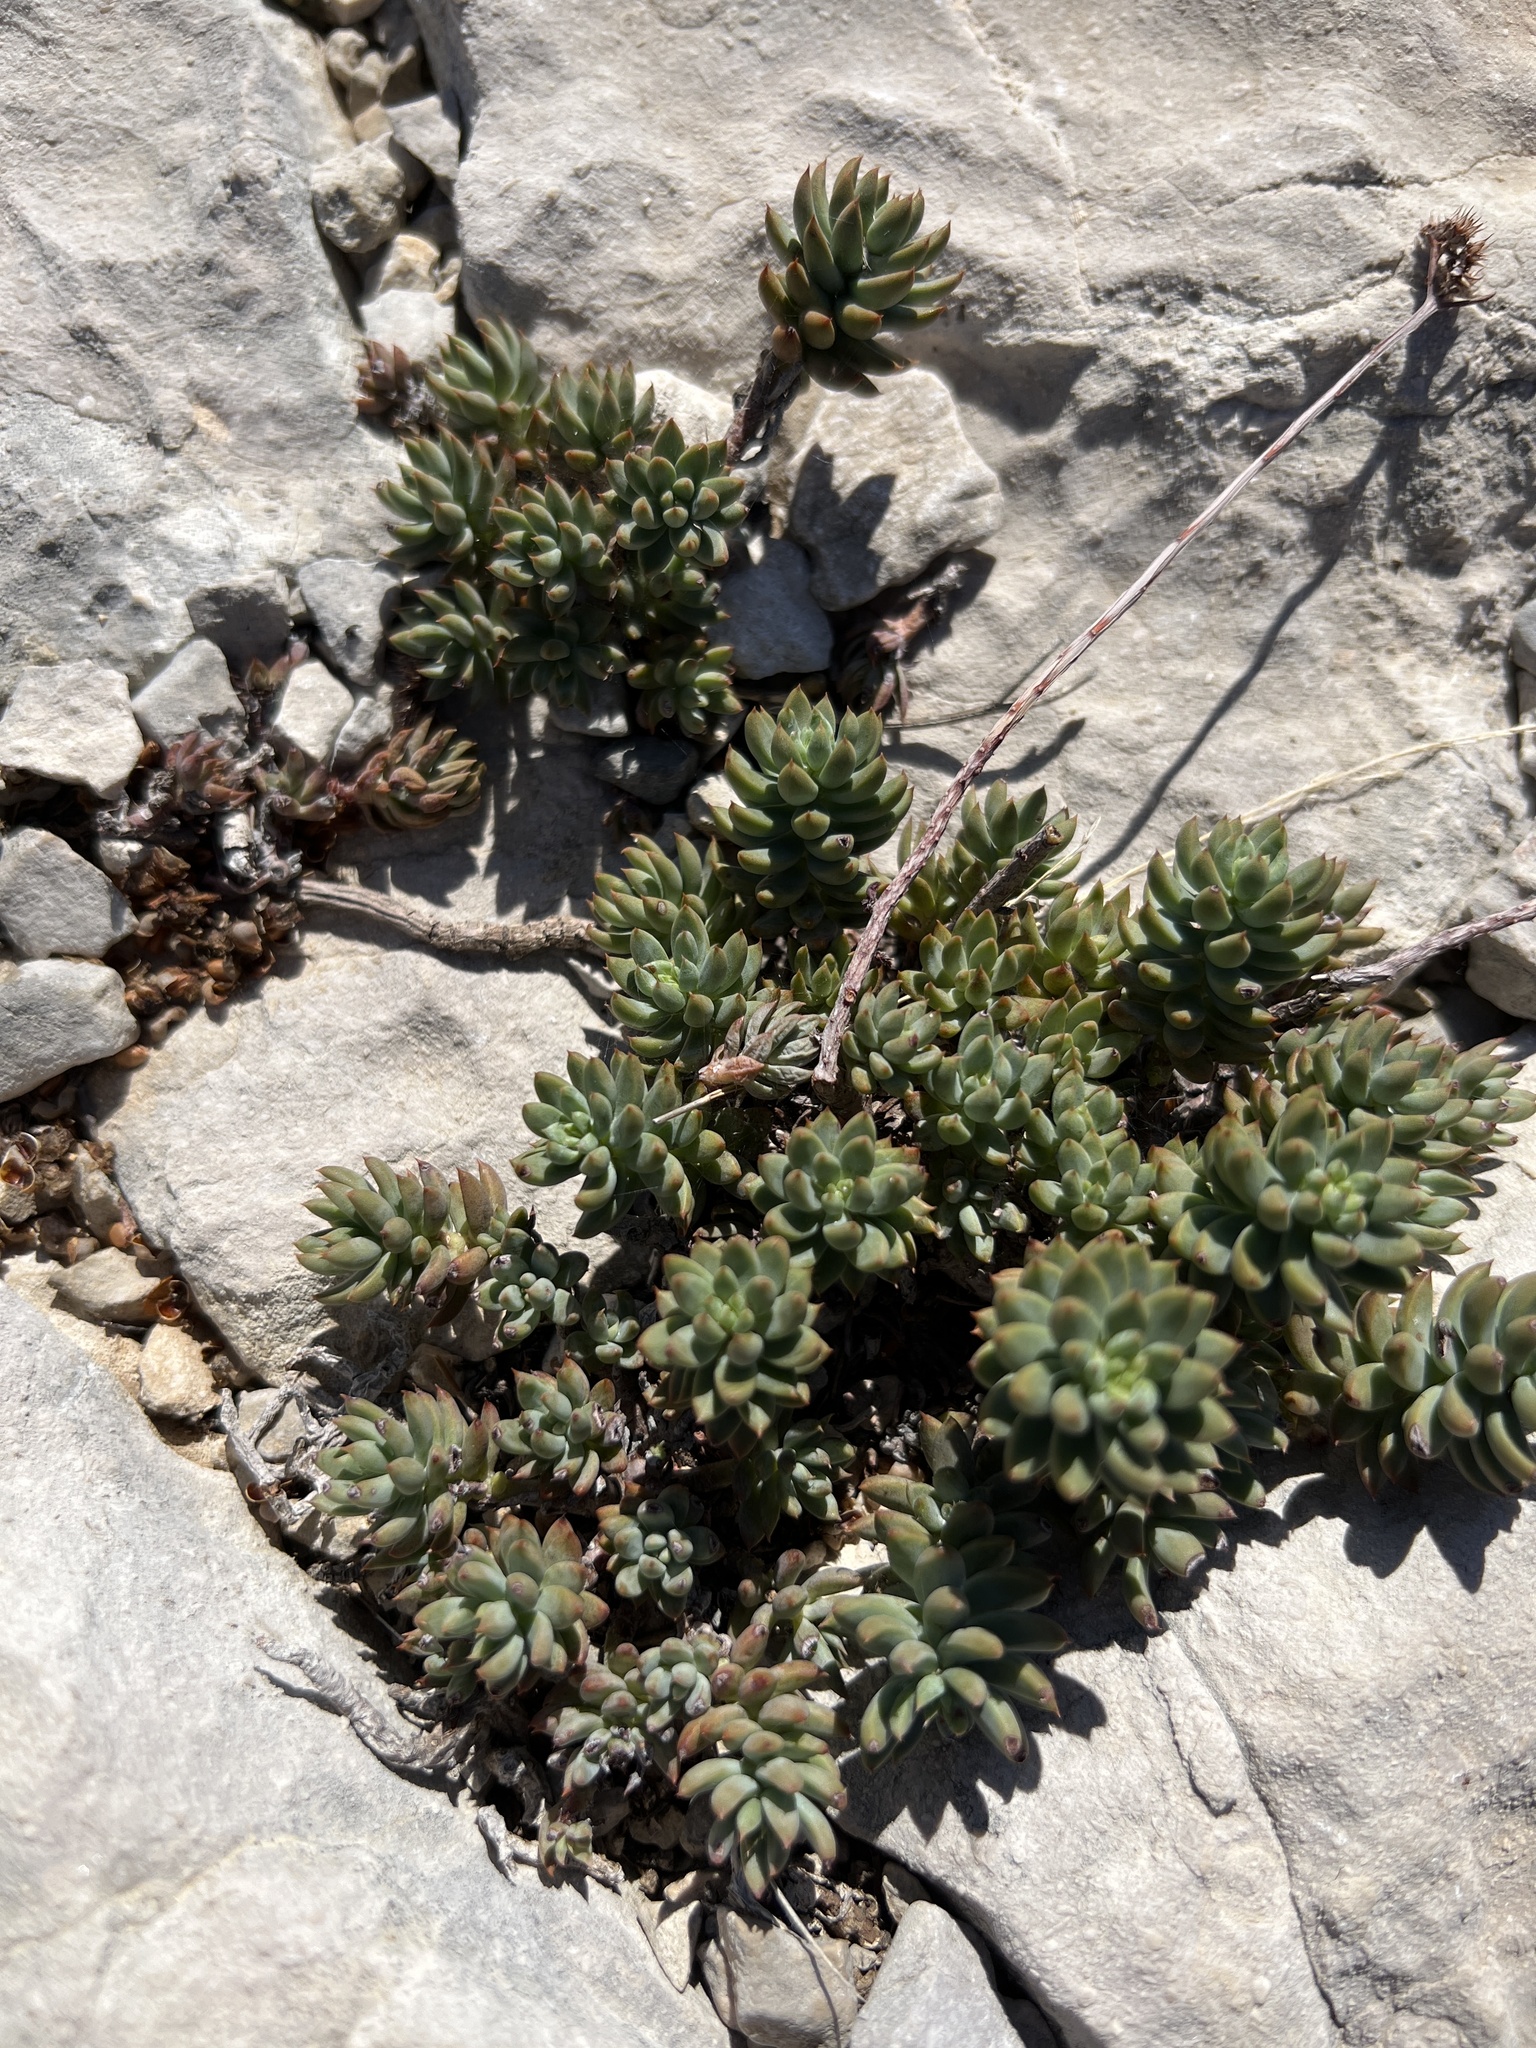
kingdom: Plantae
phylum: Tracheophyta
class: Magnoliopsida
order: Saxifragales
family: Crassulaceae
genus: Petrosedum
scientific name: Petrosedum sediforme
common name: Pale stonecrop
